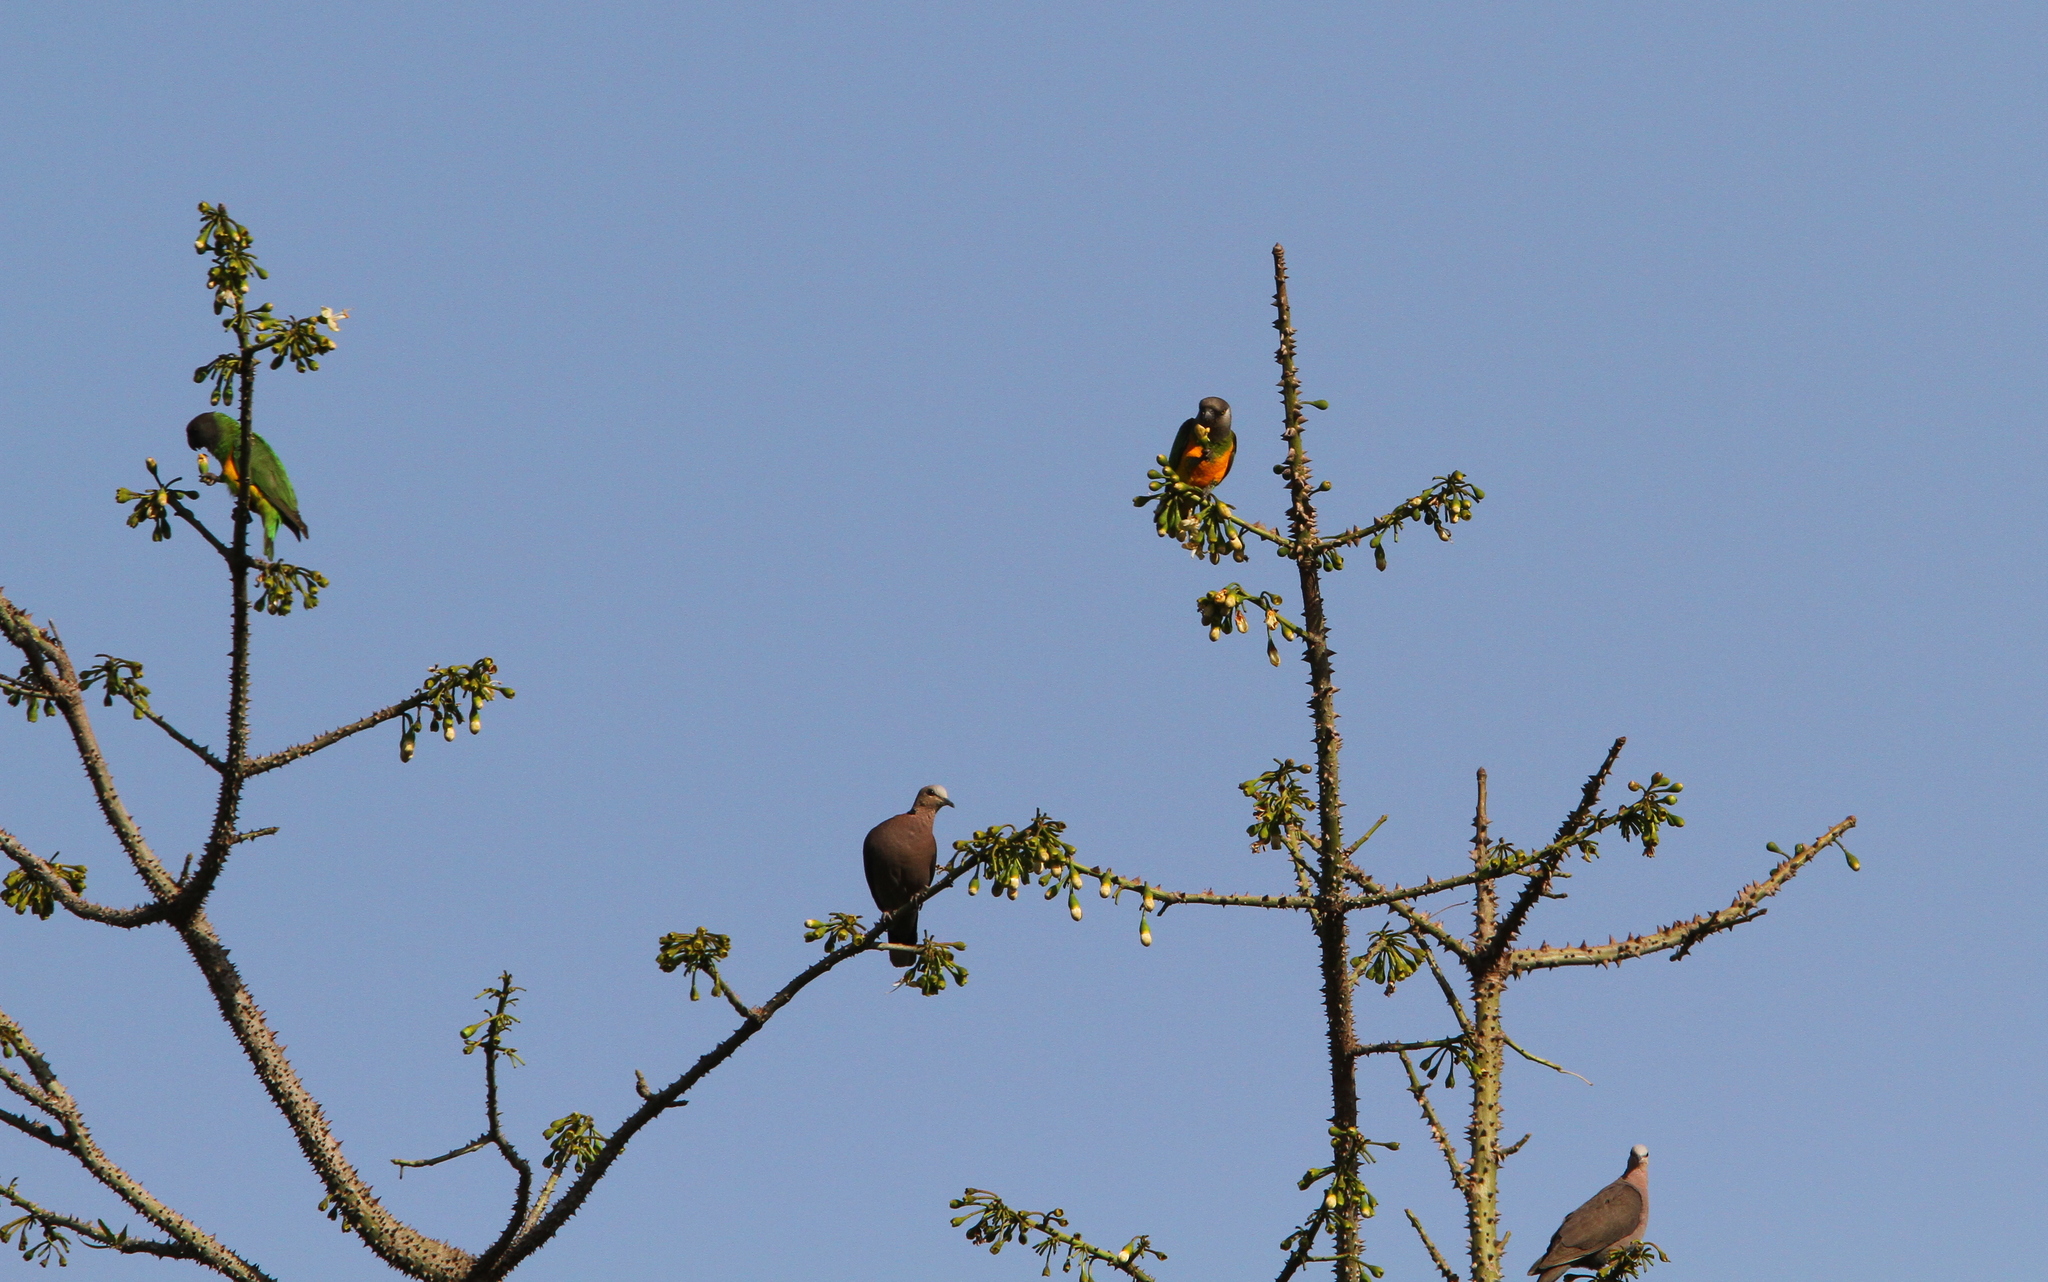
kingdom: Animalia
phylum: Chordata
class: Aves
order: Psittaciformes
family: Psittacidae
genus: Poicephalus
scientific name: Poicephalus senegalus
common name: Senegal parrot
